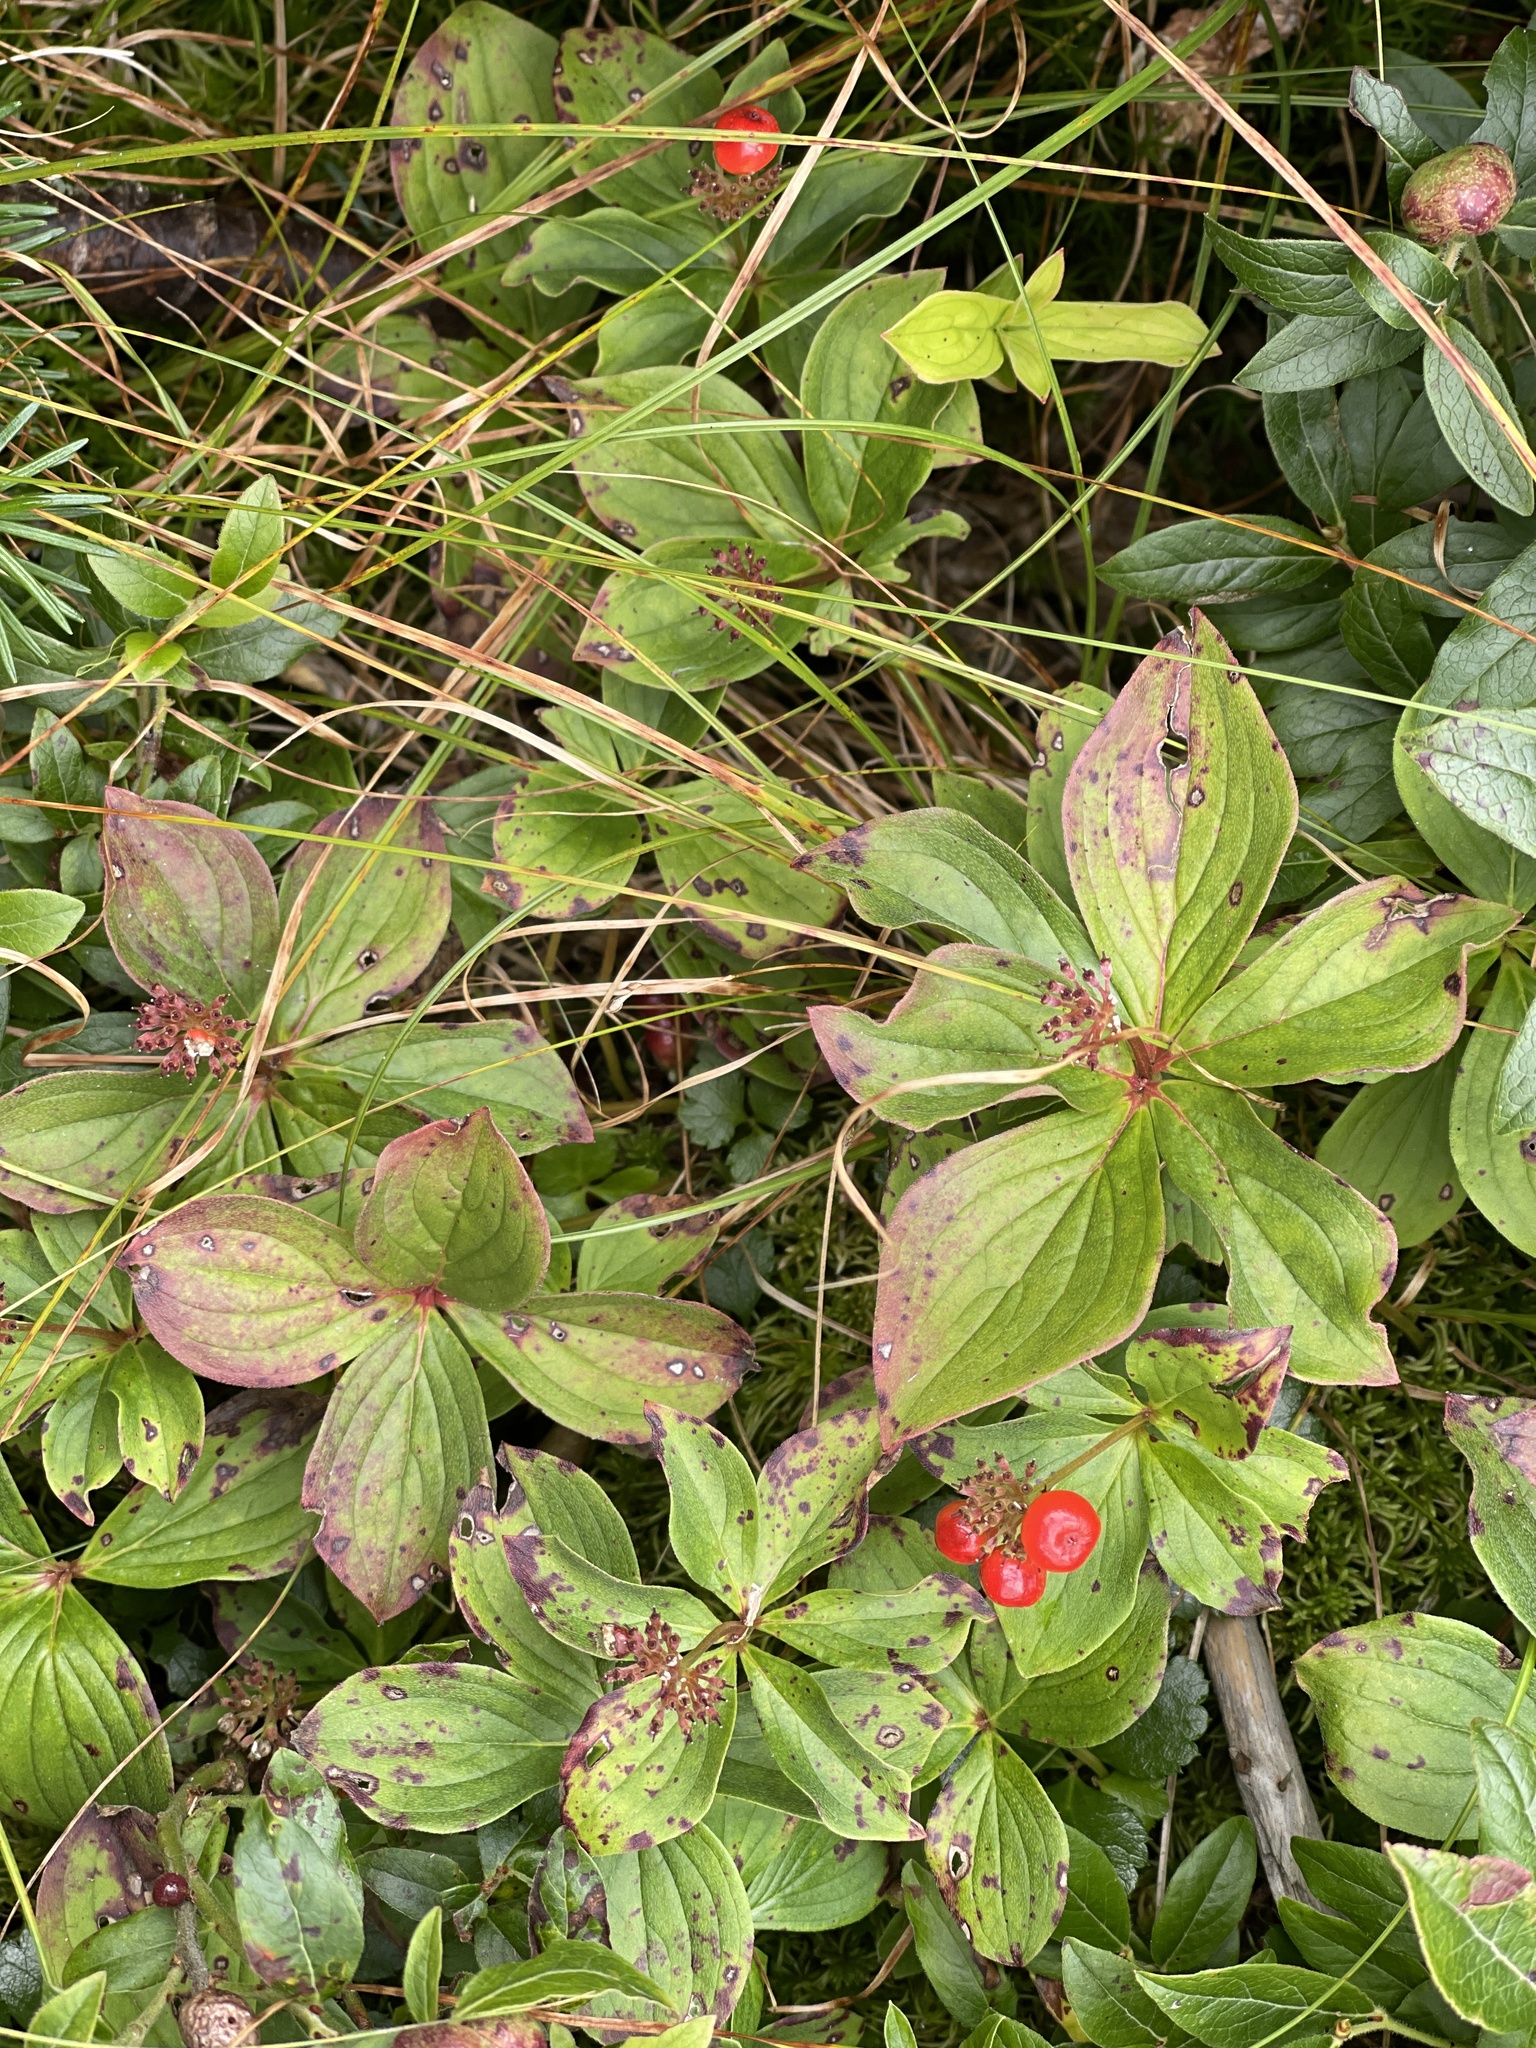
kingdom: Plantae
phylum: Tracheophyta
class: Magnoliopsida
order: Cornales
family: Cornaceae
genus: Cornus
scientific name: Cornus canadensis
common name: Creeping dogwood
